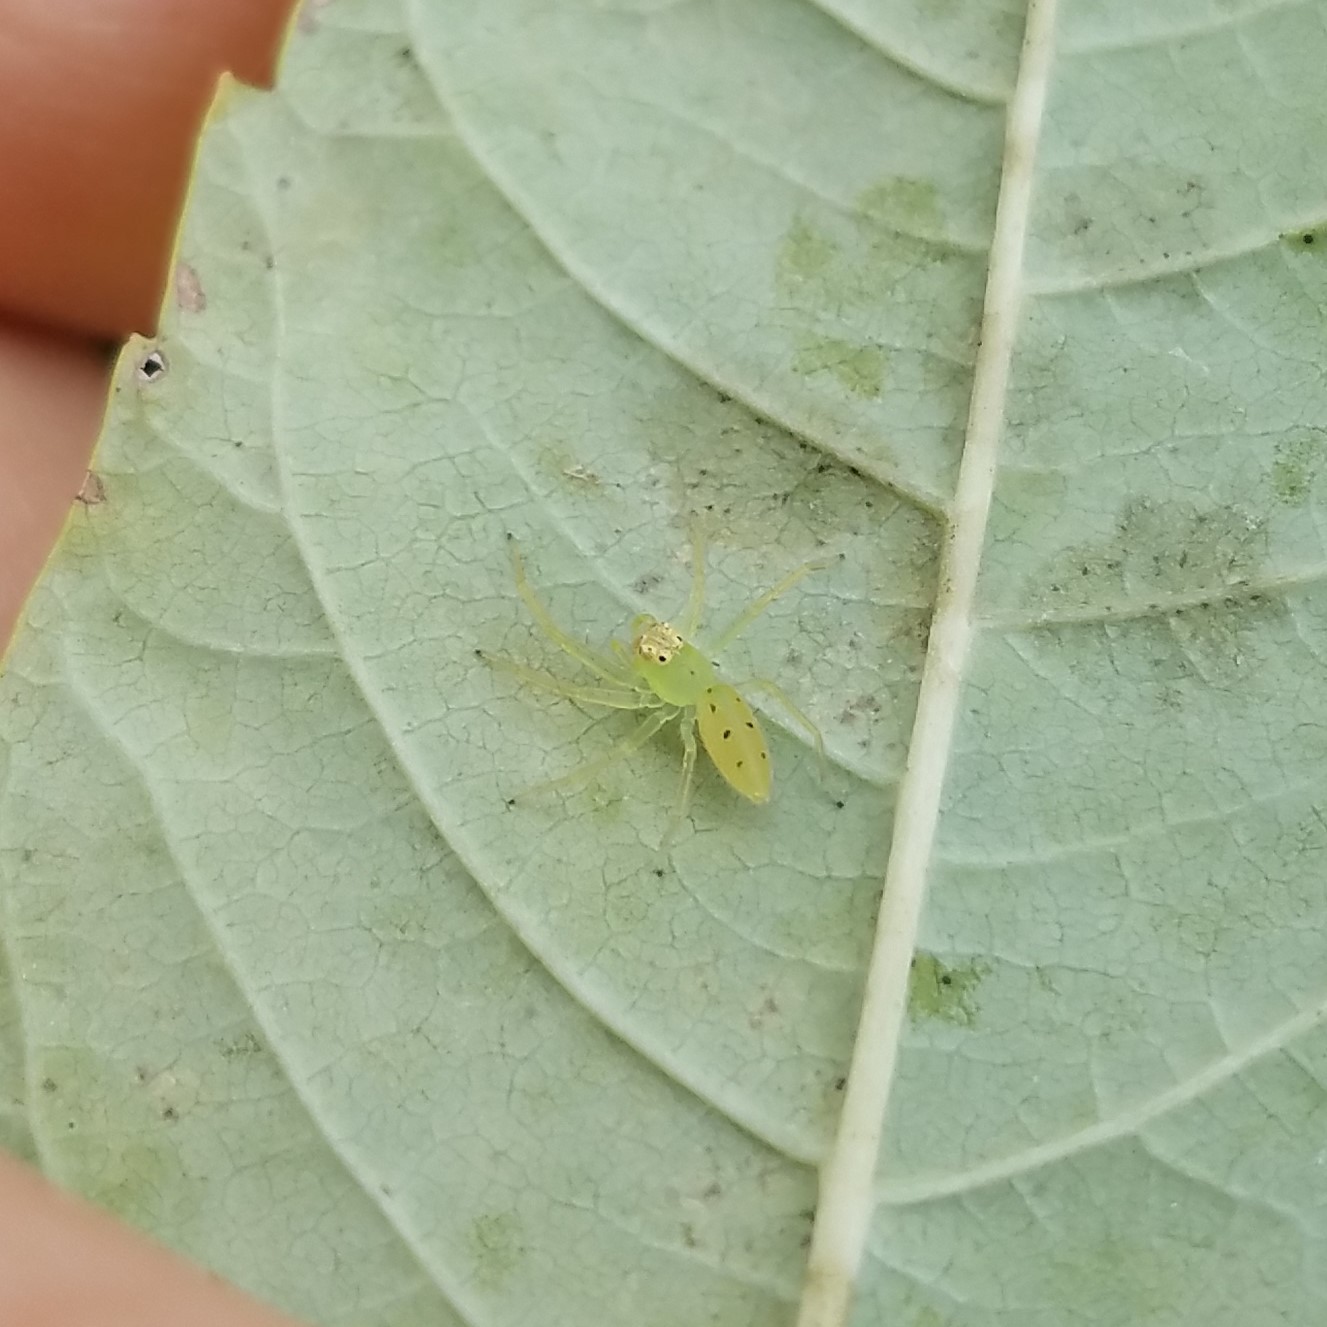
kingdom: Animalia
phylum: Arthropoda
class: Arachnida
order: Araneae
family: Salticidae
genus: Lyssomanes
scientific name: Lyssomanes viridis
